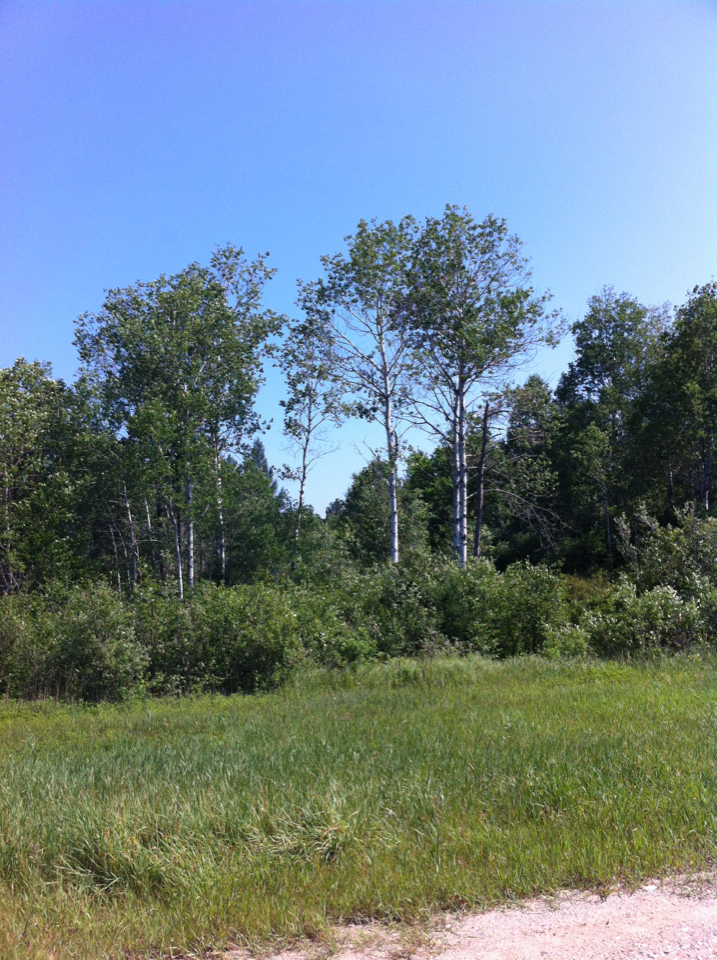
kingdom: Plantae
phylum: Tracheophyta
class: Magnoliopsida
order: Malpighiales
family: Salicaceae
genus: Populus
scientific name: Populus tremuloides
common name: Quaking aspen
